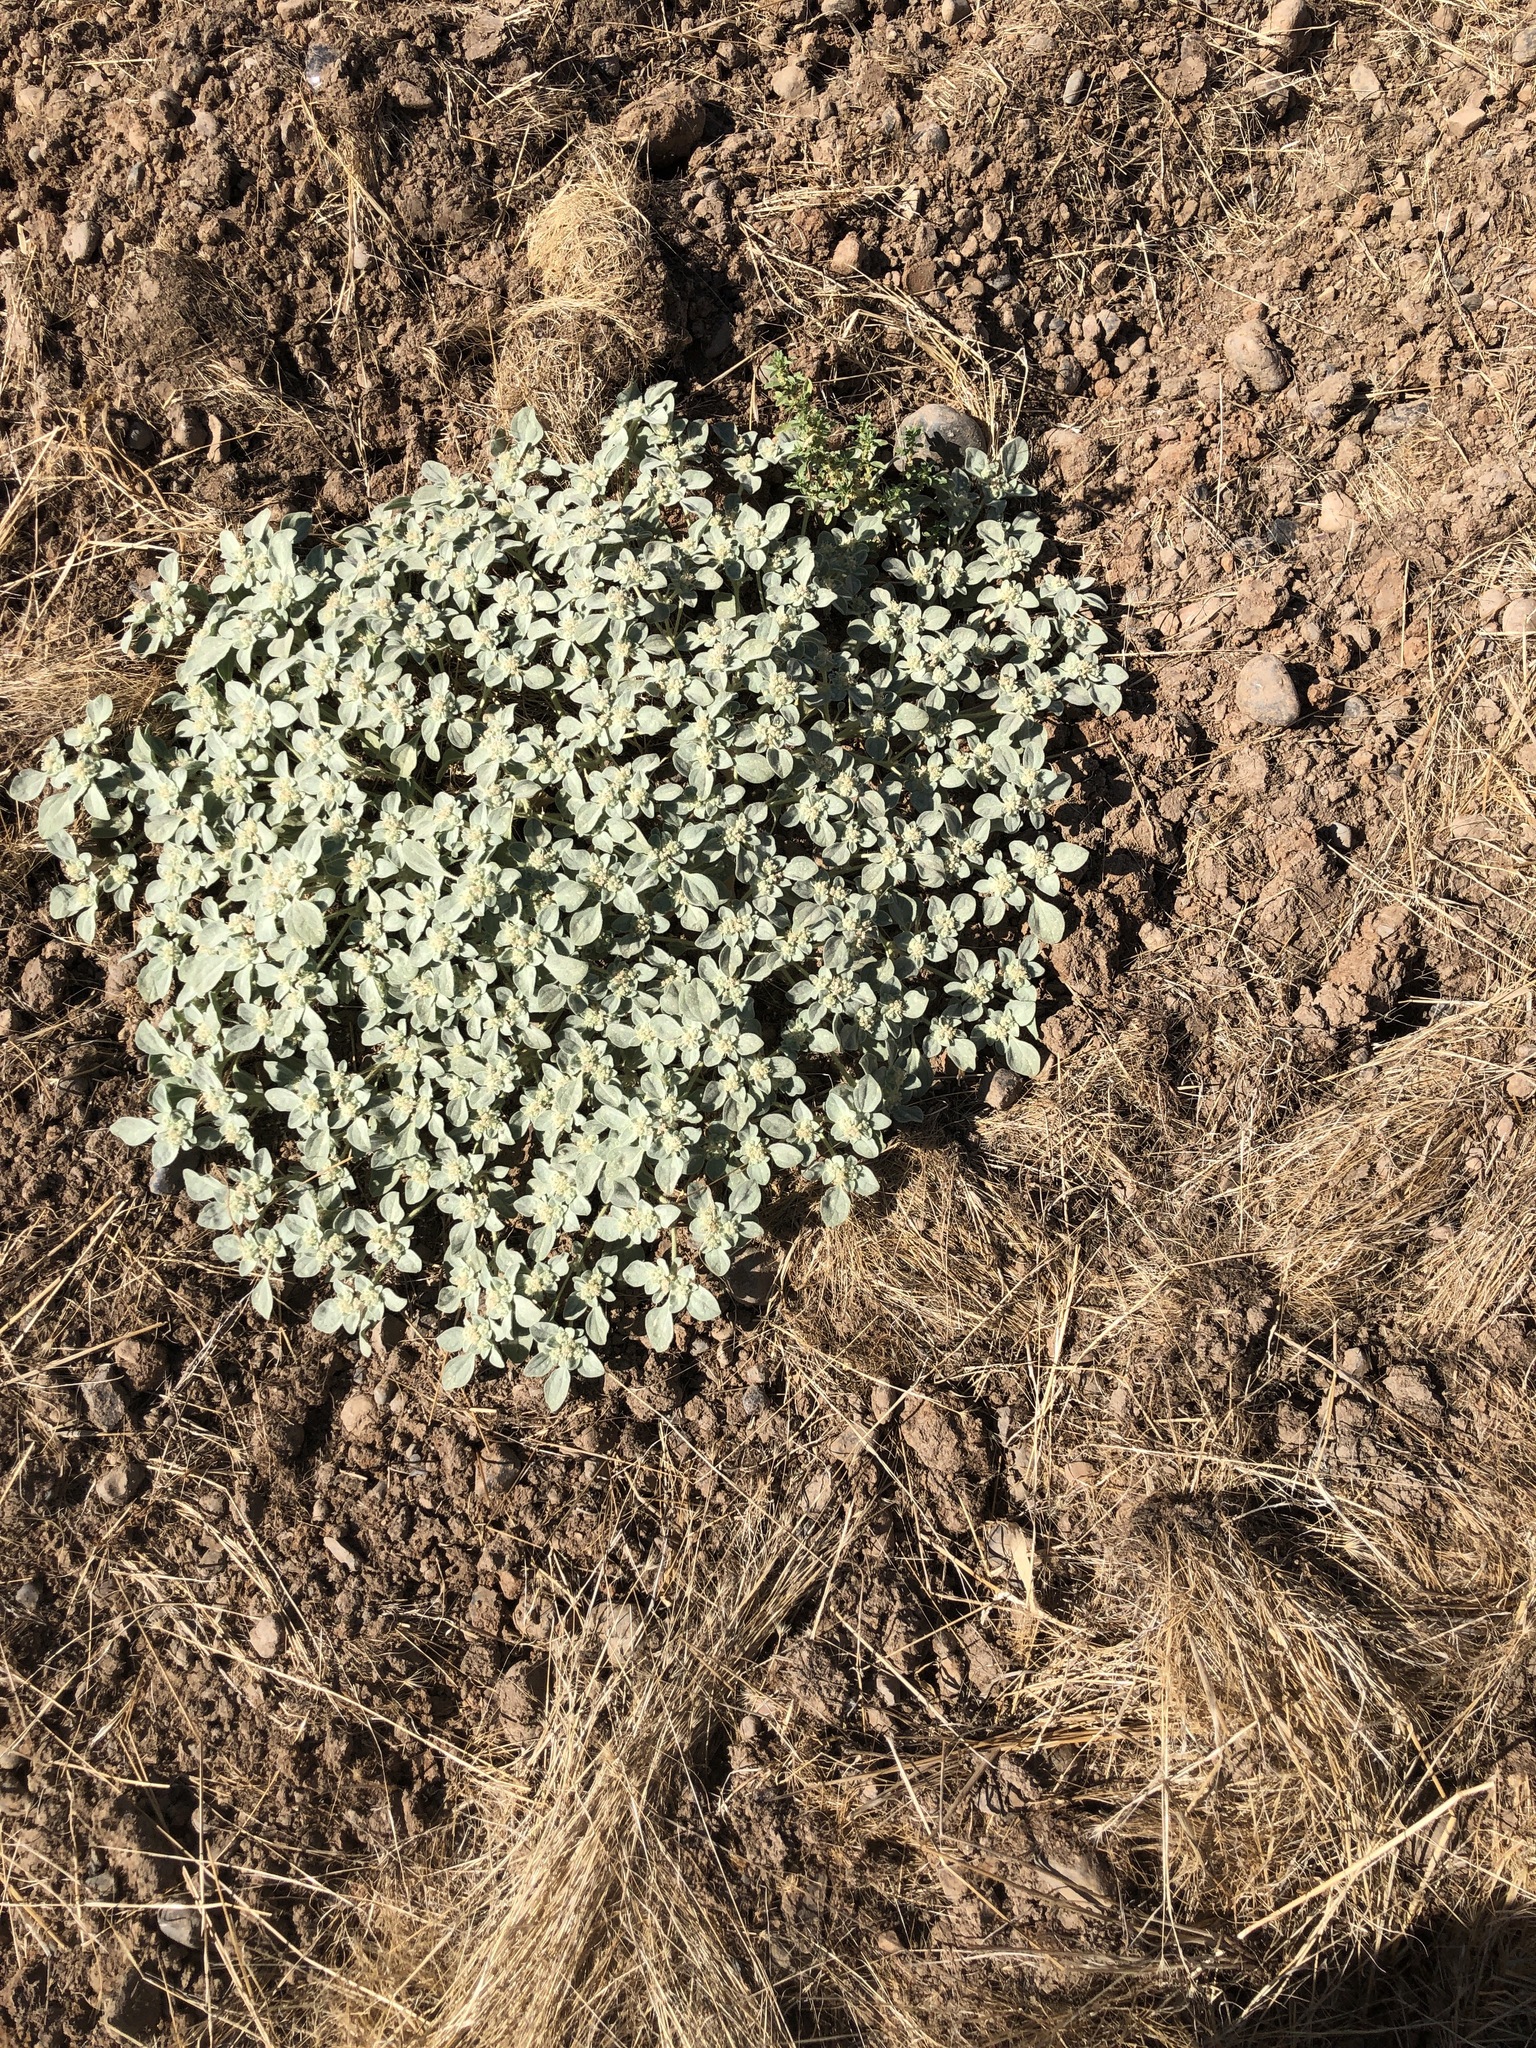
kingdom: Plantae
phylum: Tracheophyta
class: Magnoliopsida
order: Malpighiales
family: Euphorbiaceae
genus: Croton
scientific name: Croton setiger
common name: Dove weed
